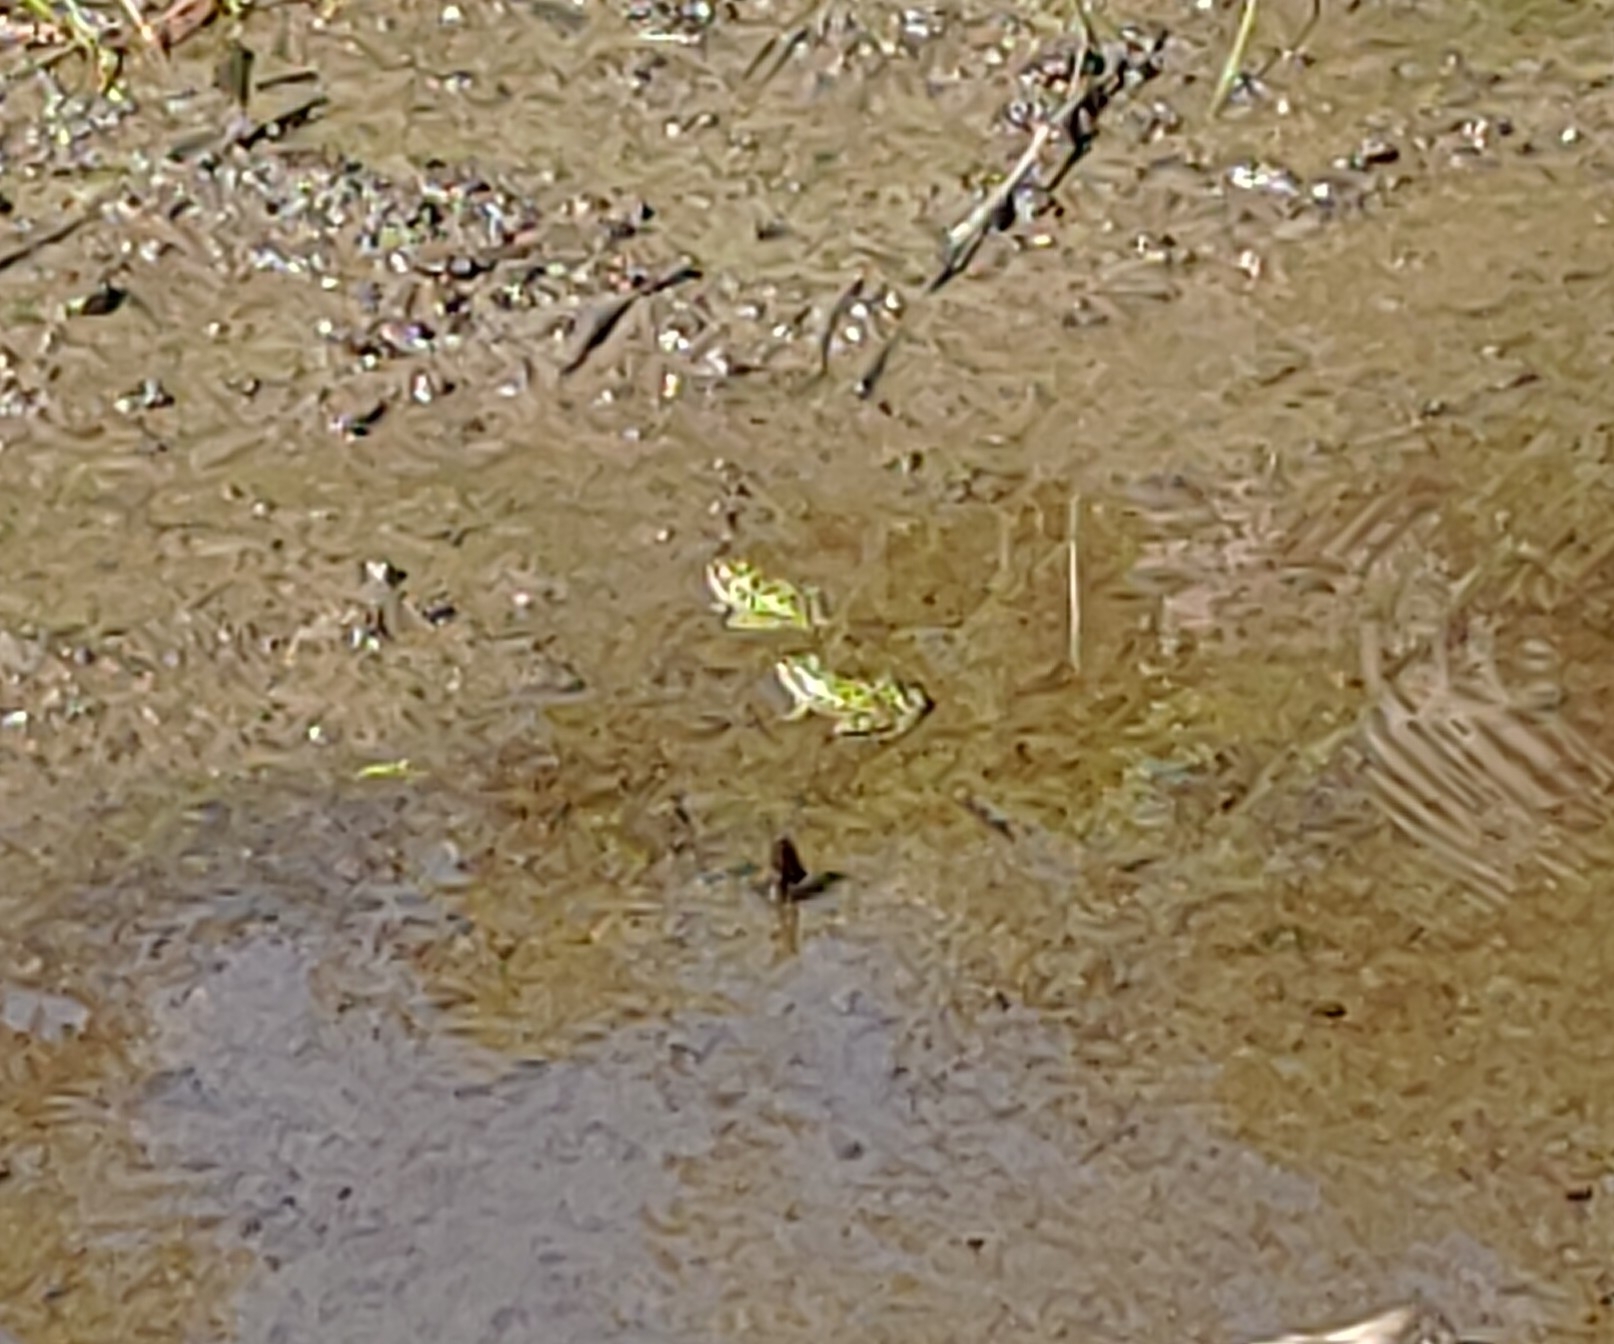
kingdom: Animalia
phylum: Chordata
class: Amphibia
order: Anura
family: Ranidae
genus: Lithobates
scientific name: Lithobates pipiens
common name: Northern leopard frog
